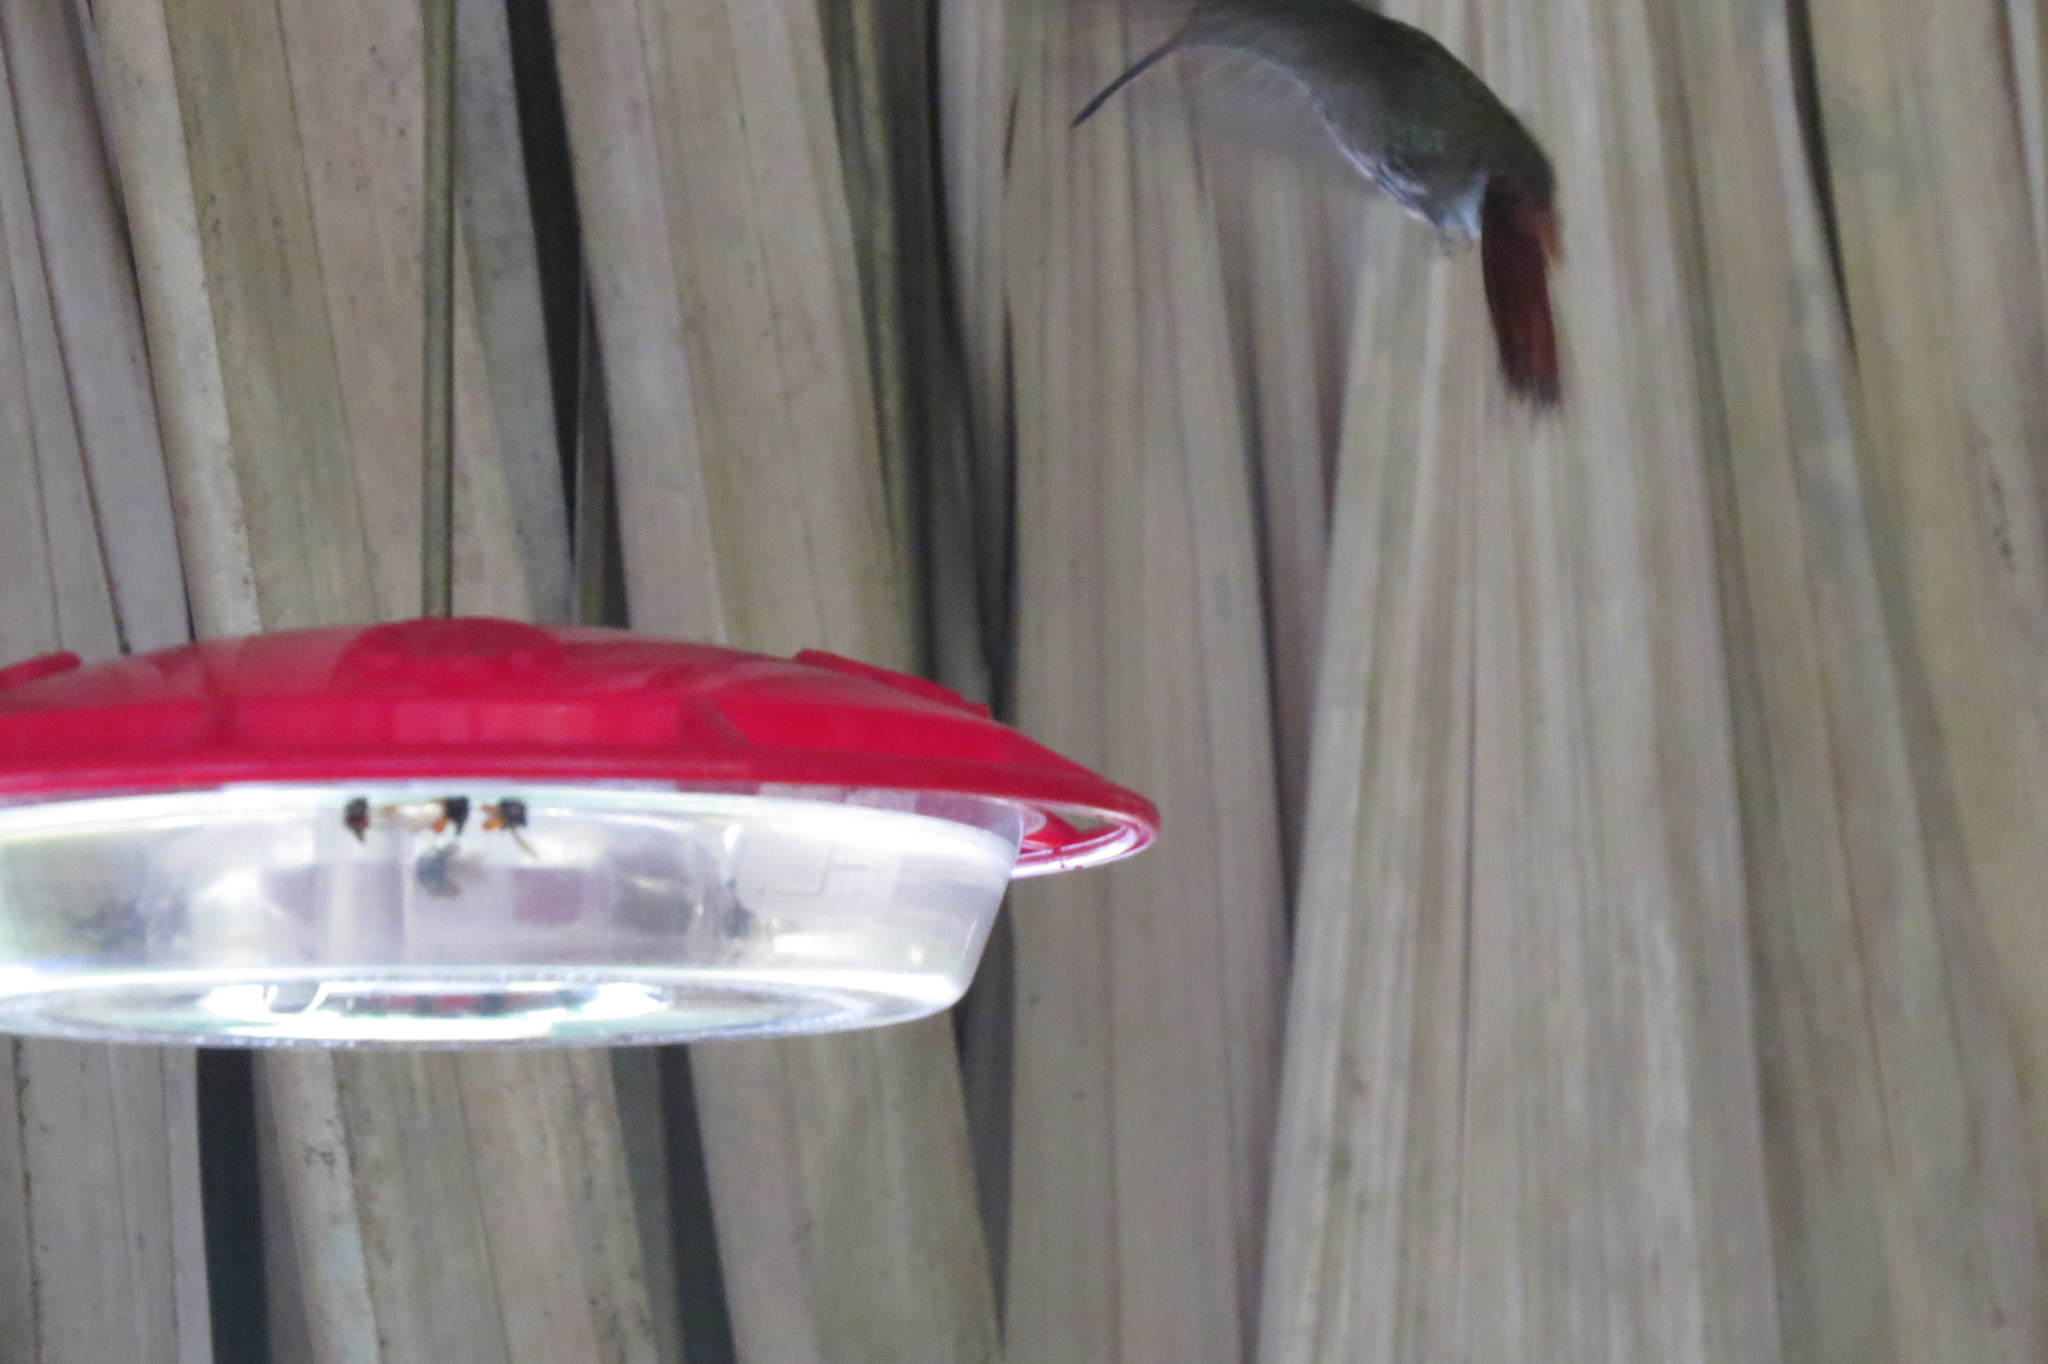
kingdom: Animalia
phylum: Chordata
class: Aves
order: Apodiformes
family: Trochilidae
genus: Amazilia
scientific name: Amazilia tzacatl
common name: Rufous-tailed hummingbird
